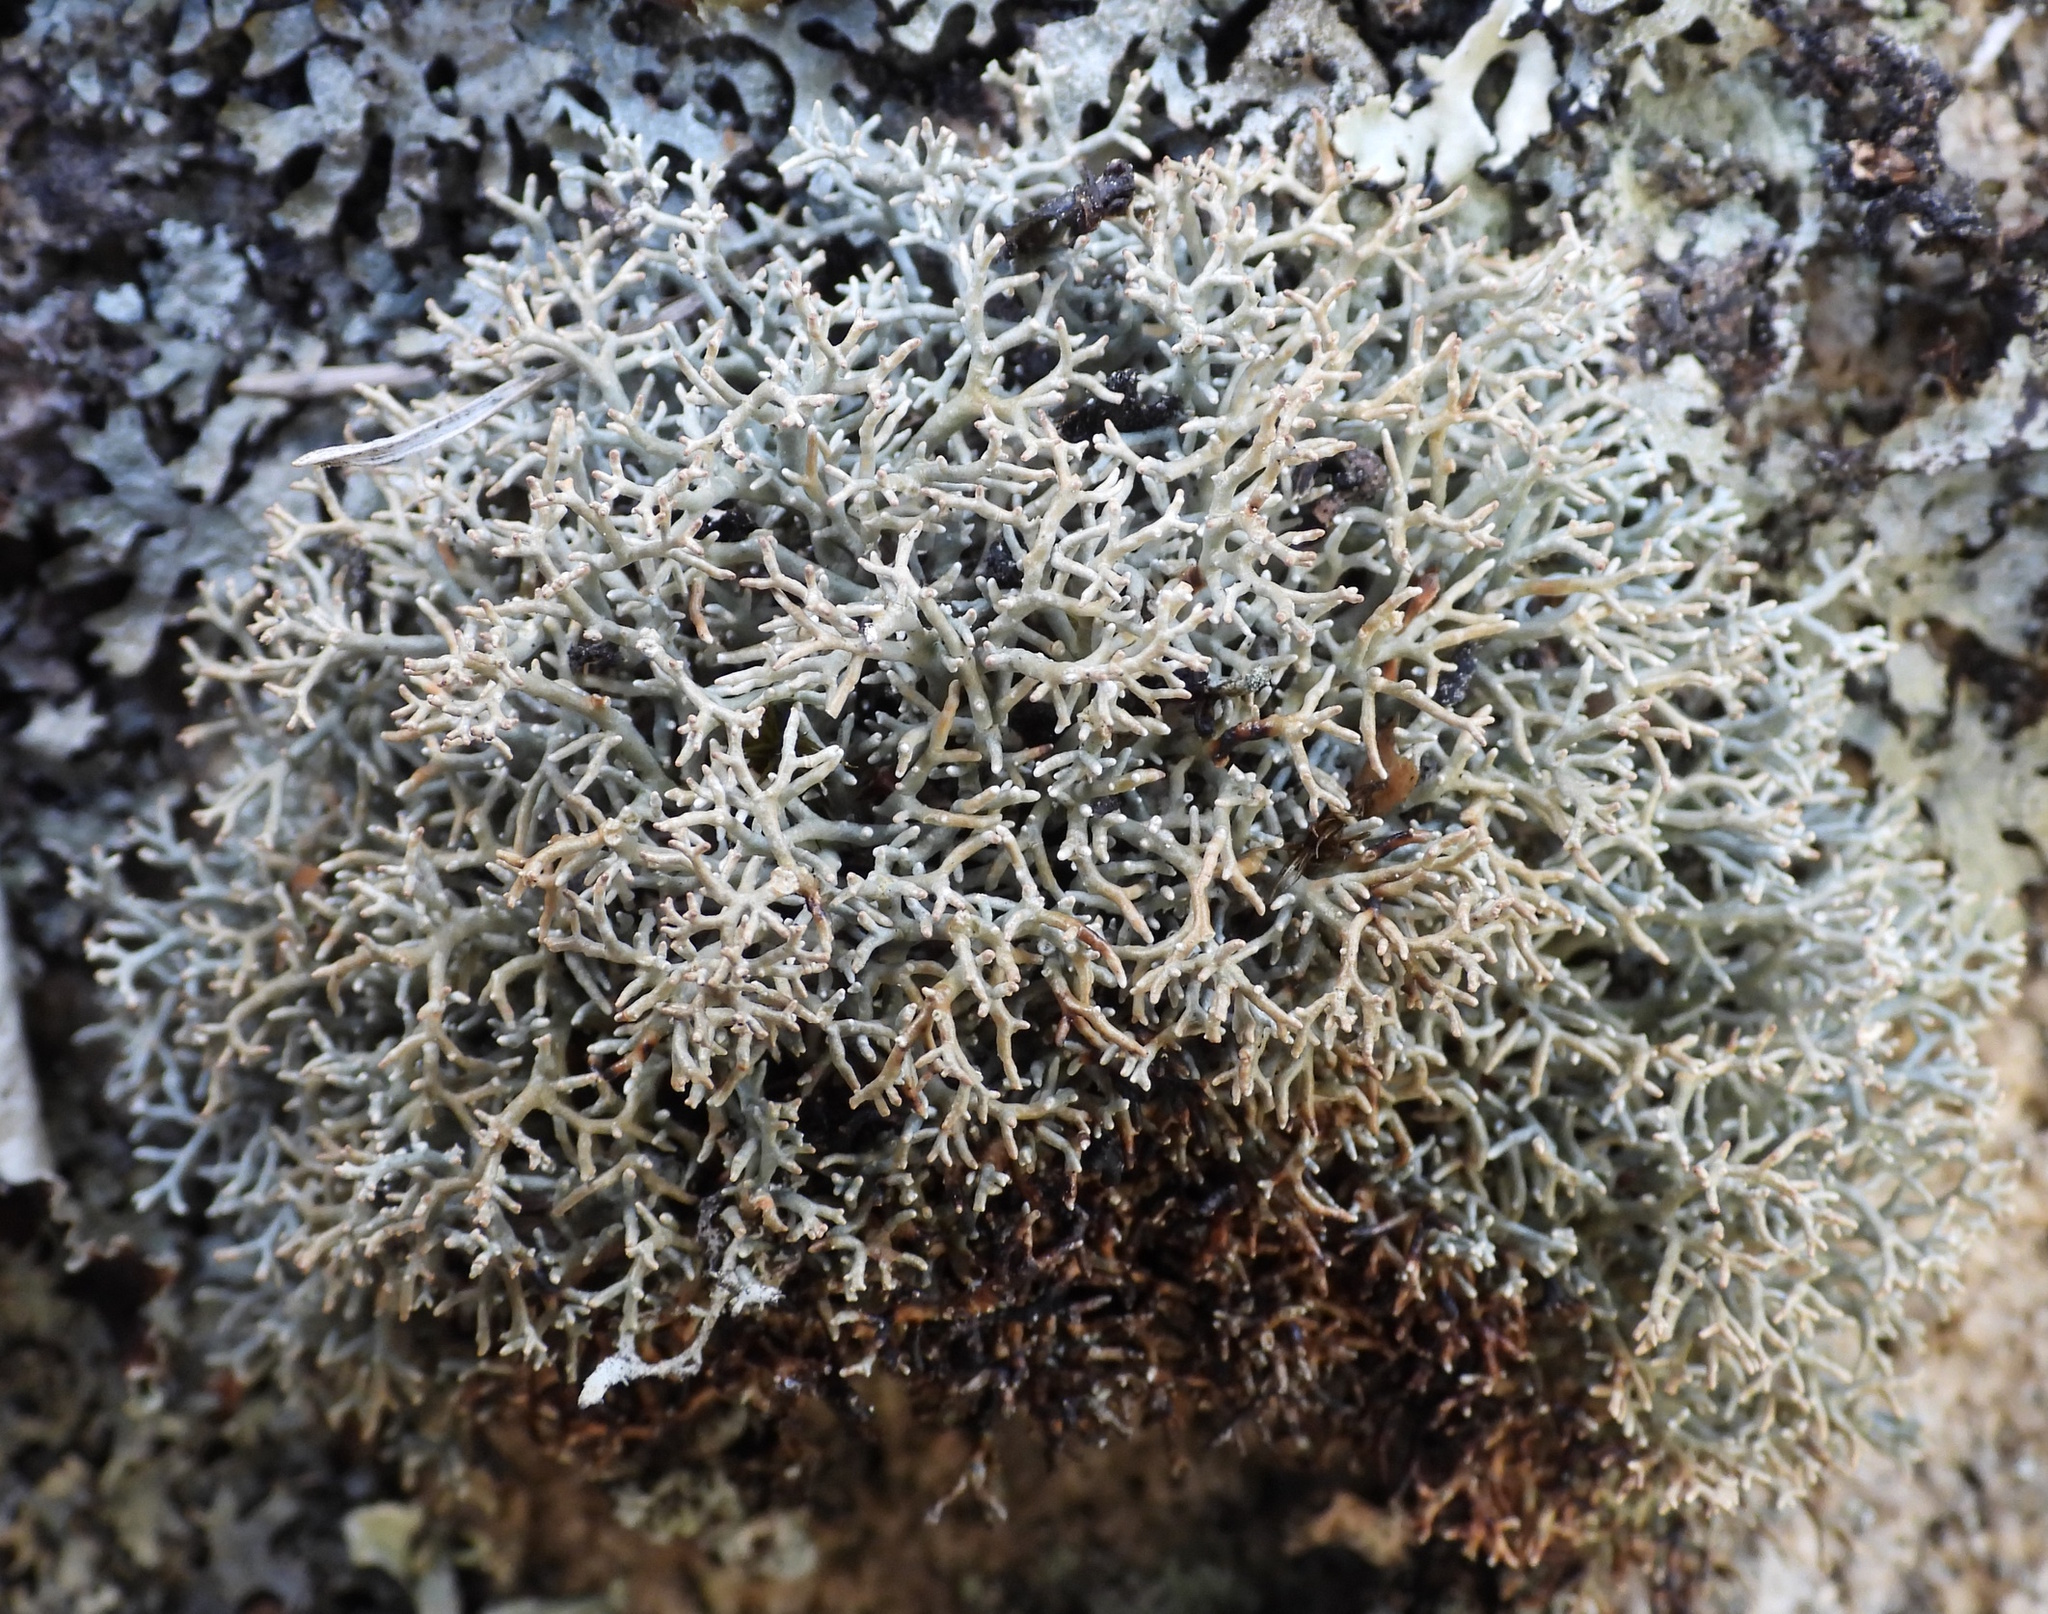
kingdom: Fungi
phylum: Ascomycota
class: Lecanoromycetes
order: Lecanorales
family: Sphaerophoraceae
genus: Sphaerophorus
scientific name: Sphaerophorus fragilis
